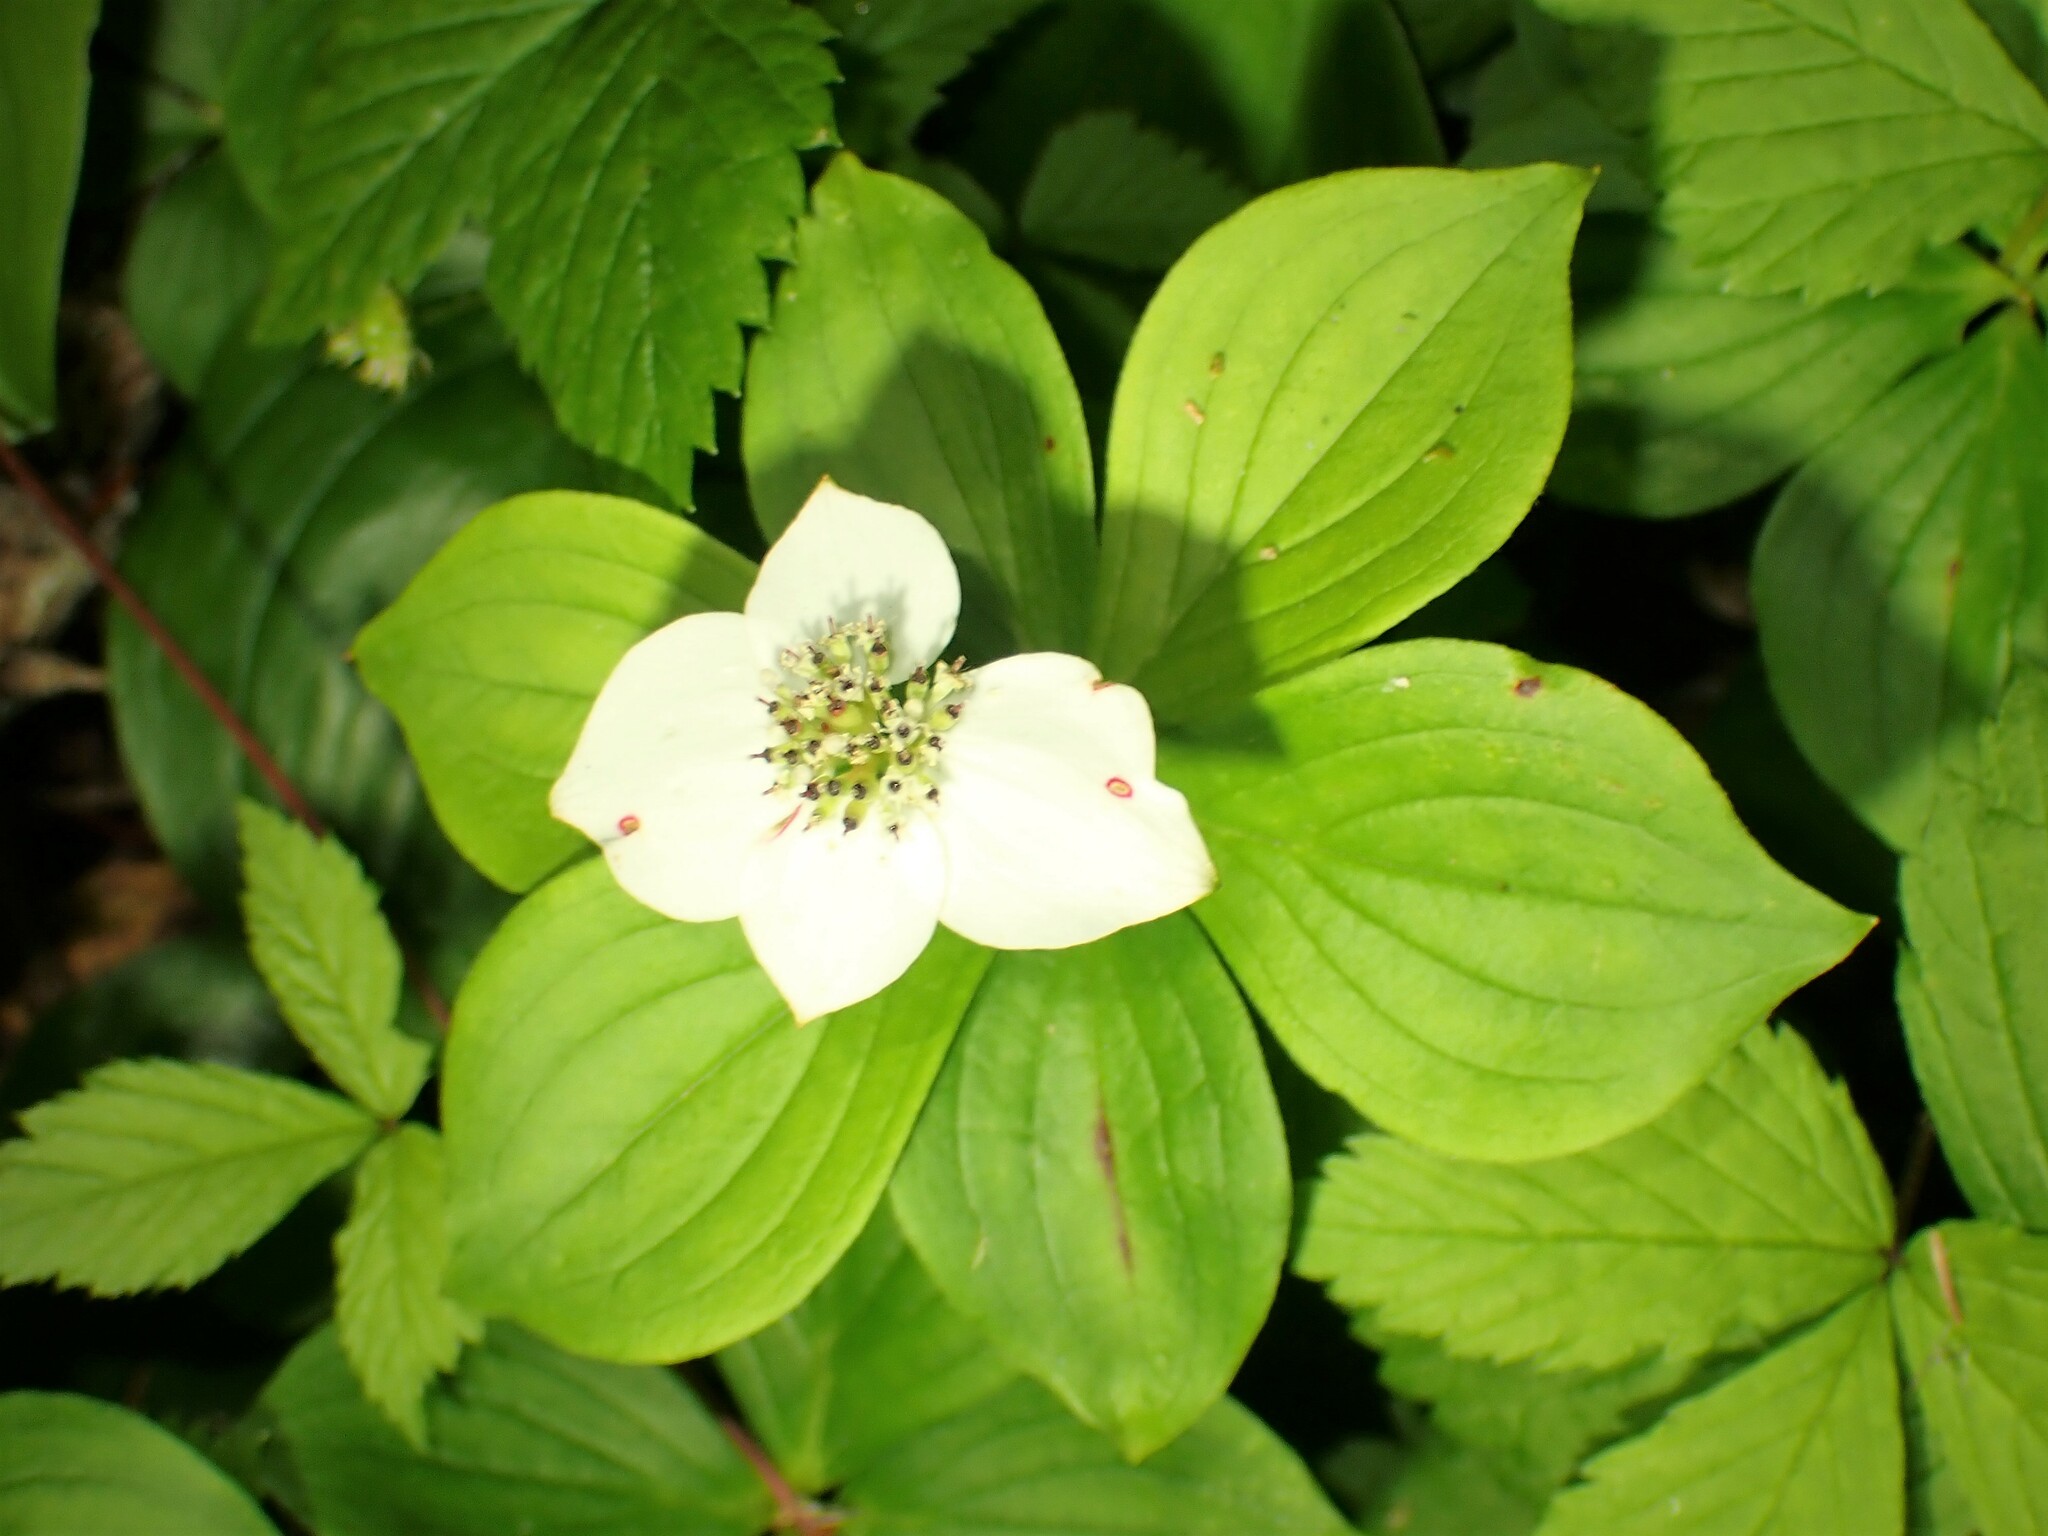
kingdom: Plantae
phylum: Tracheophyta
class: Magnoliopsida
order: Cornales
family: Cornaceae
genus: Cornus
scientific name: Cornus canadensis
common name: Creeping dogwood
